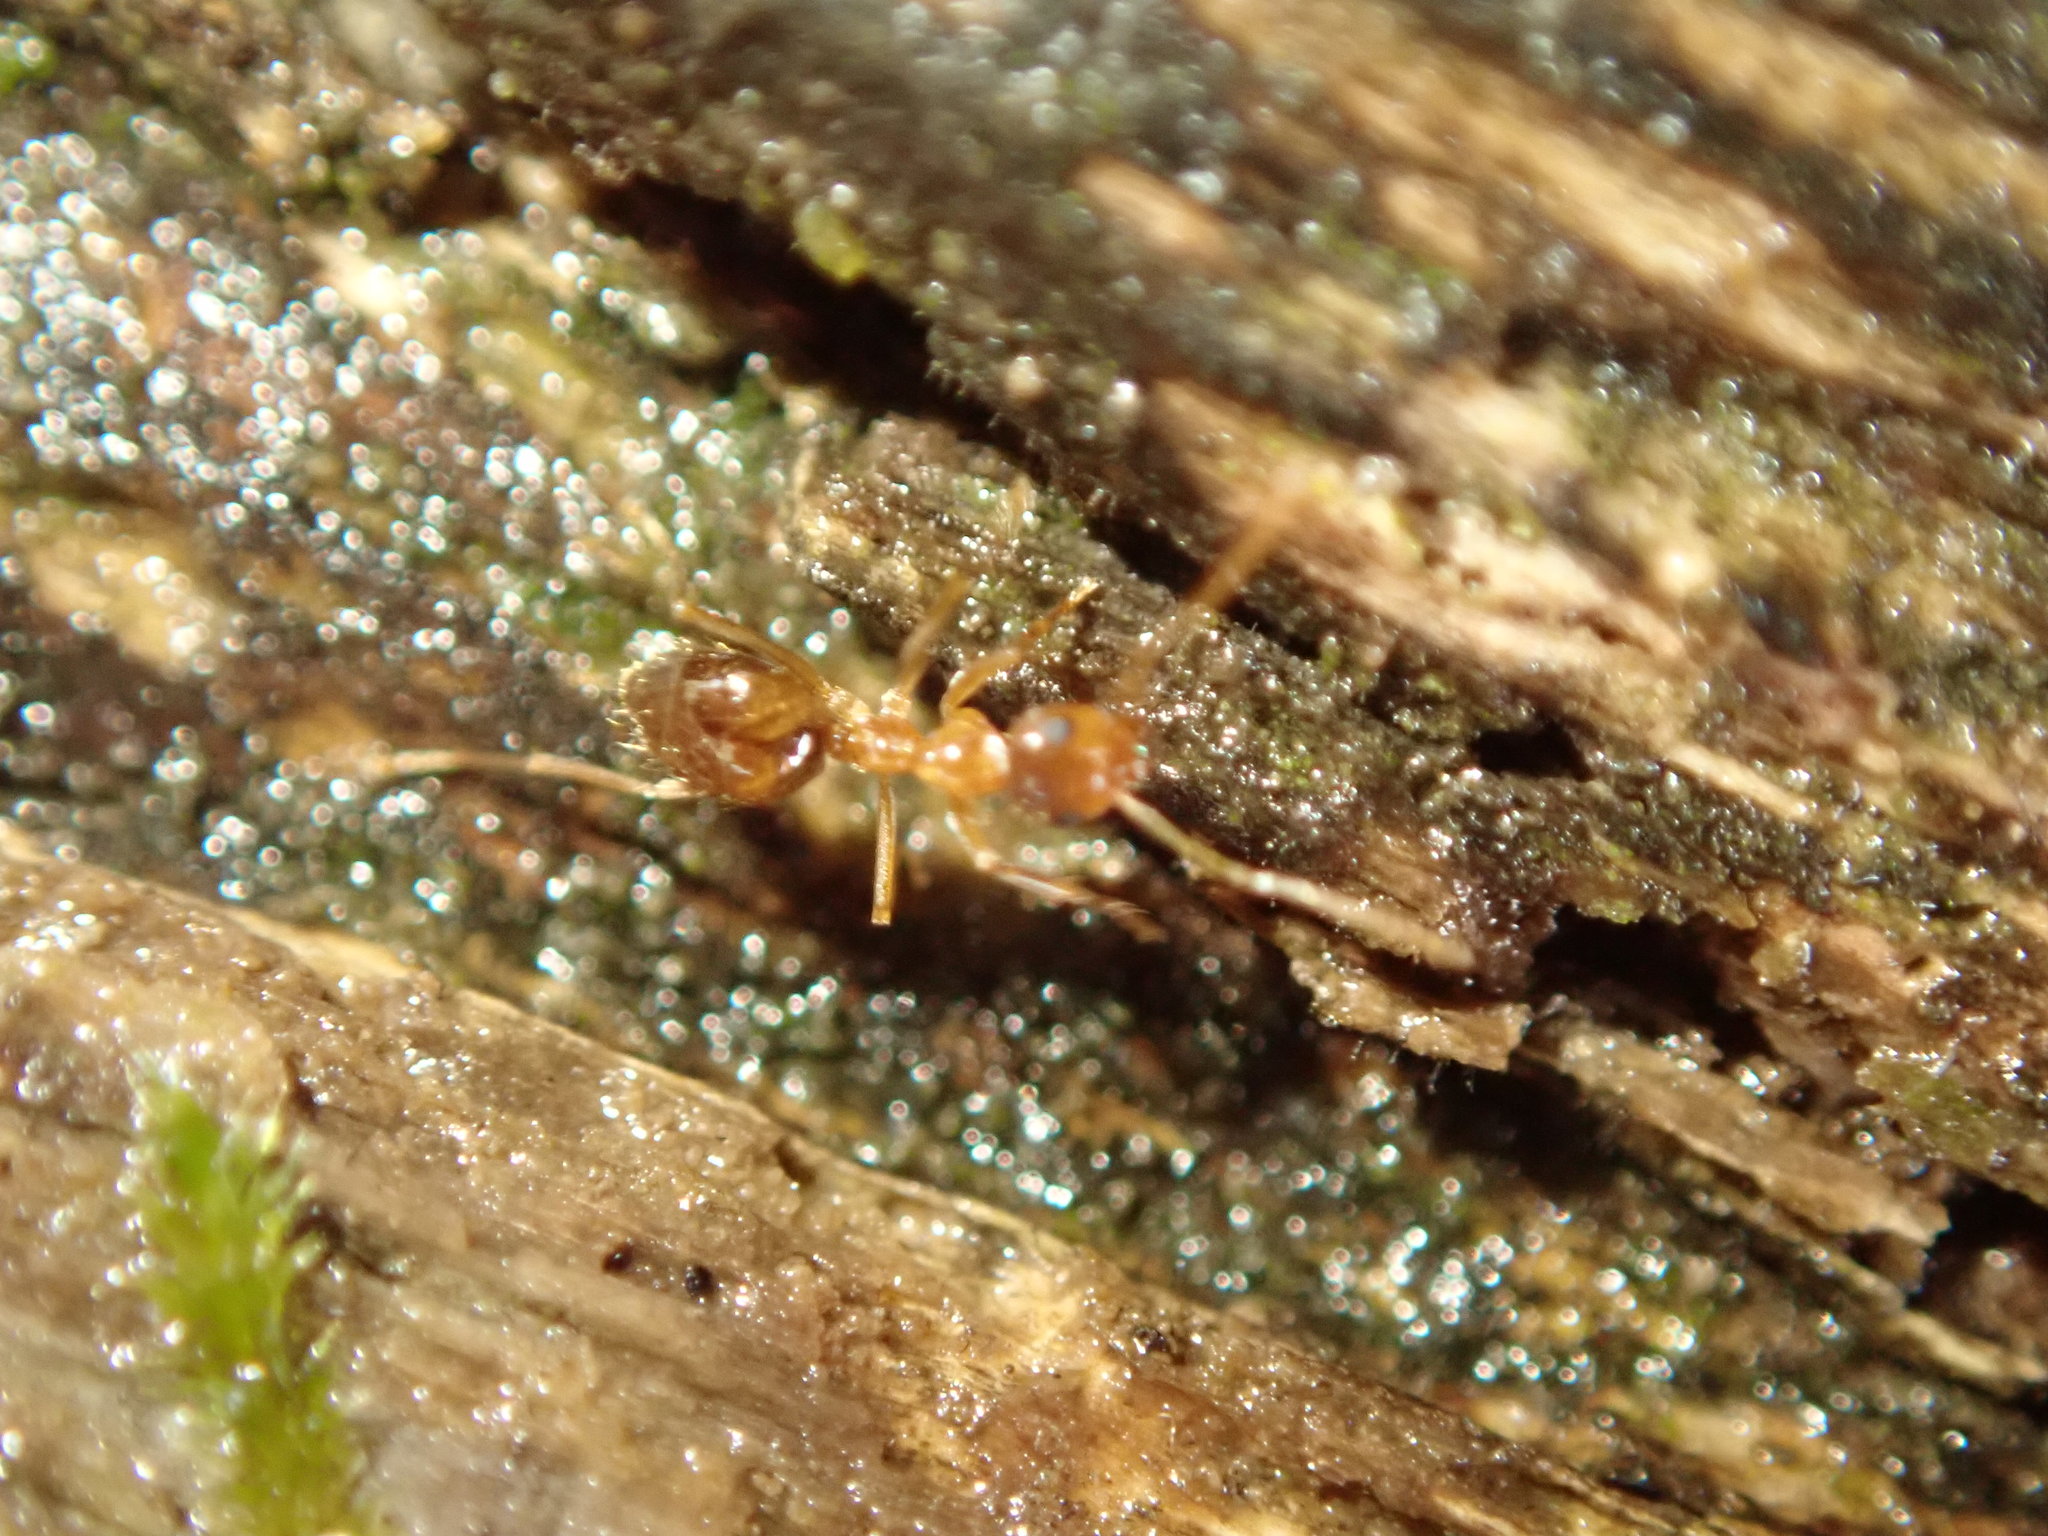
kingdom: Animalia
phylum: Arthropoda
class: Insecta
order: Hymenoptera
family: Formicidae
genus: Prenolepis
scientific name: Prenolepis imparis
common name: Small honey ant
